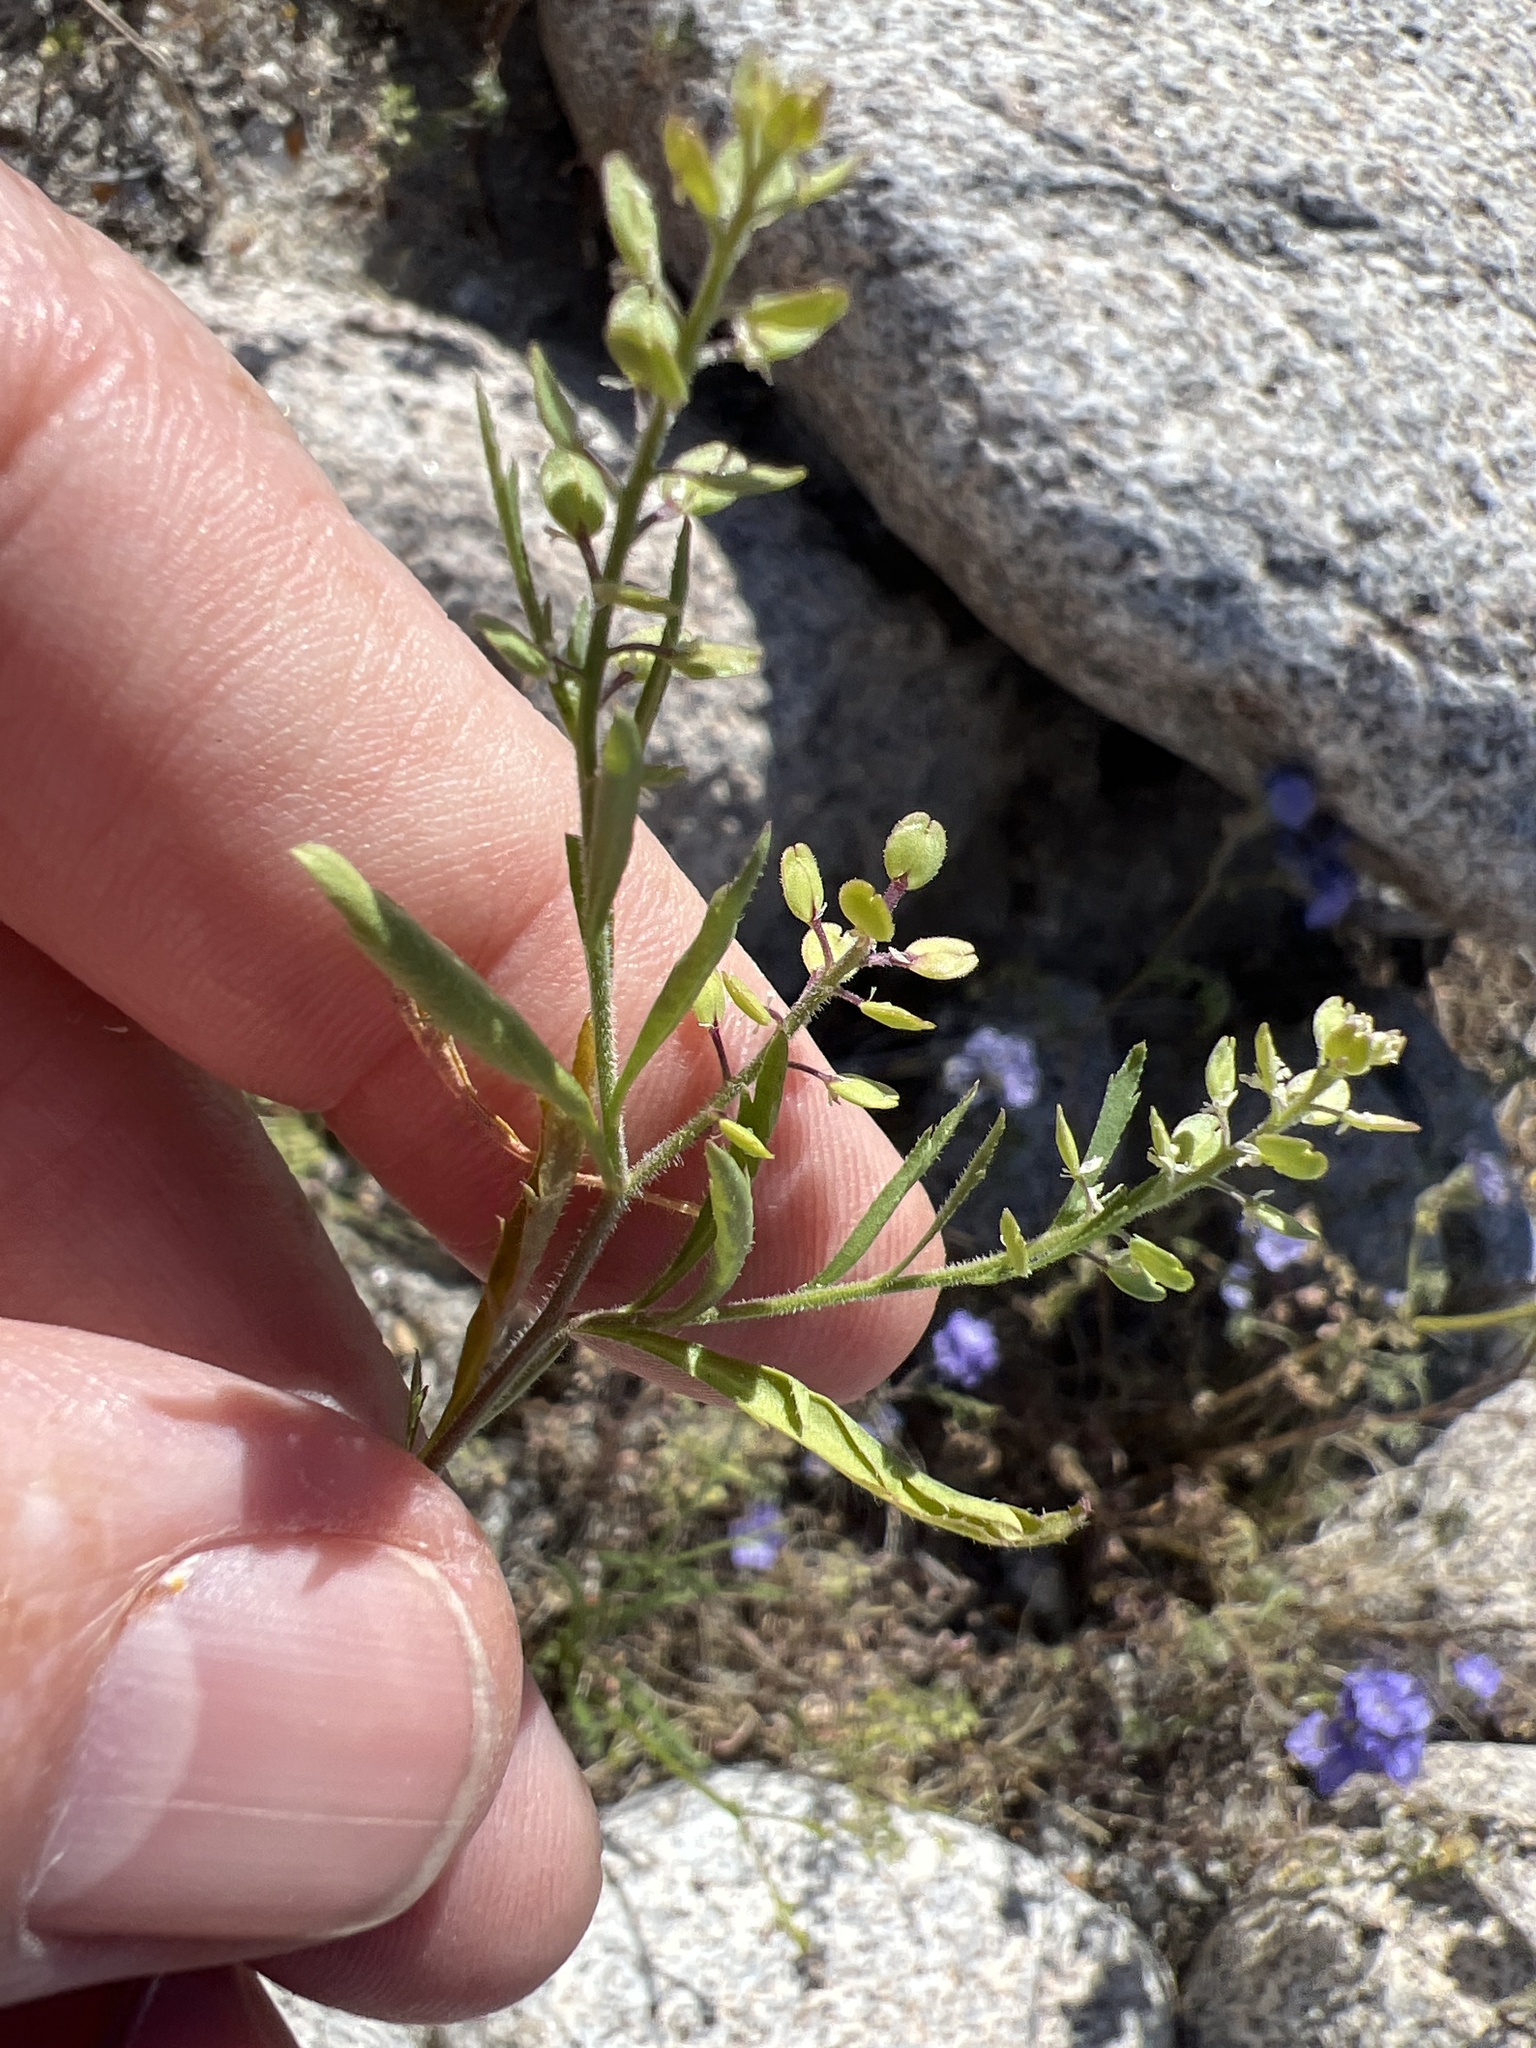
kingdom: Plantae
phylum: Tracheophyta
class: Magnoliopsida
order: Brassicales
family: Brassicaceae
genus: Lepidium
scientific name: Lepidium lasiocarpum
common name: Hairy-pod pepperwort
